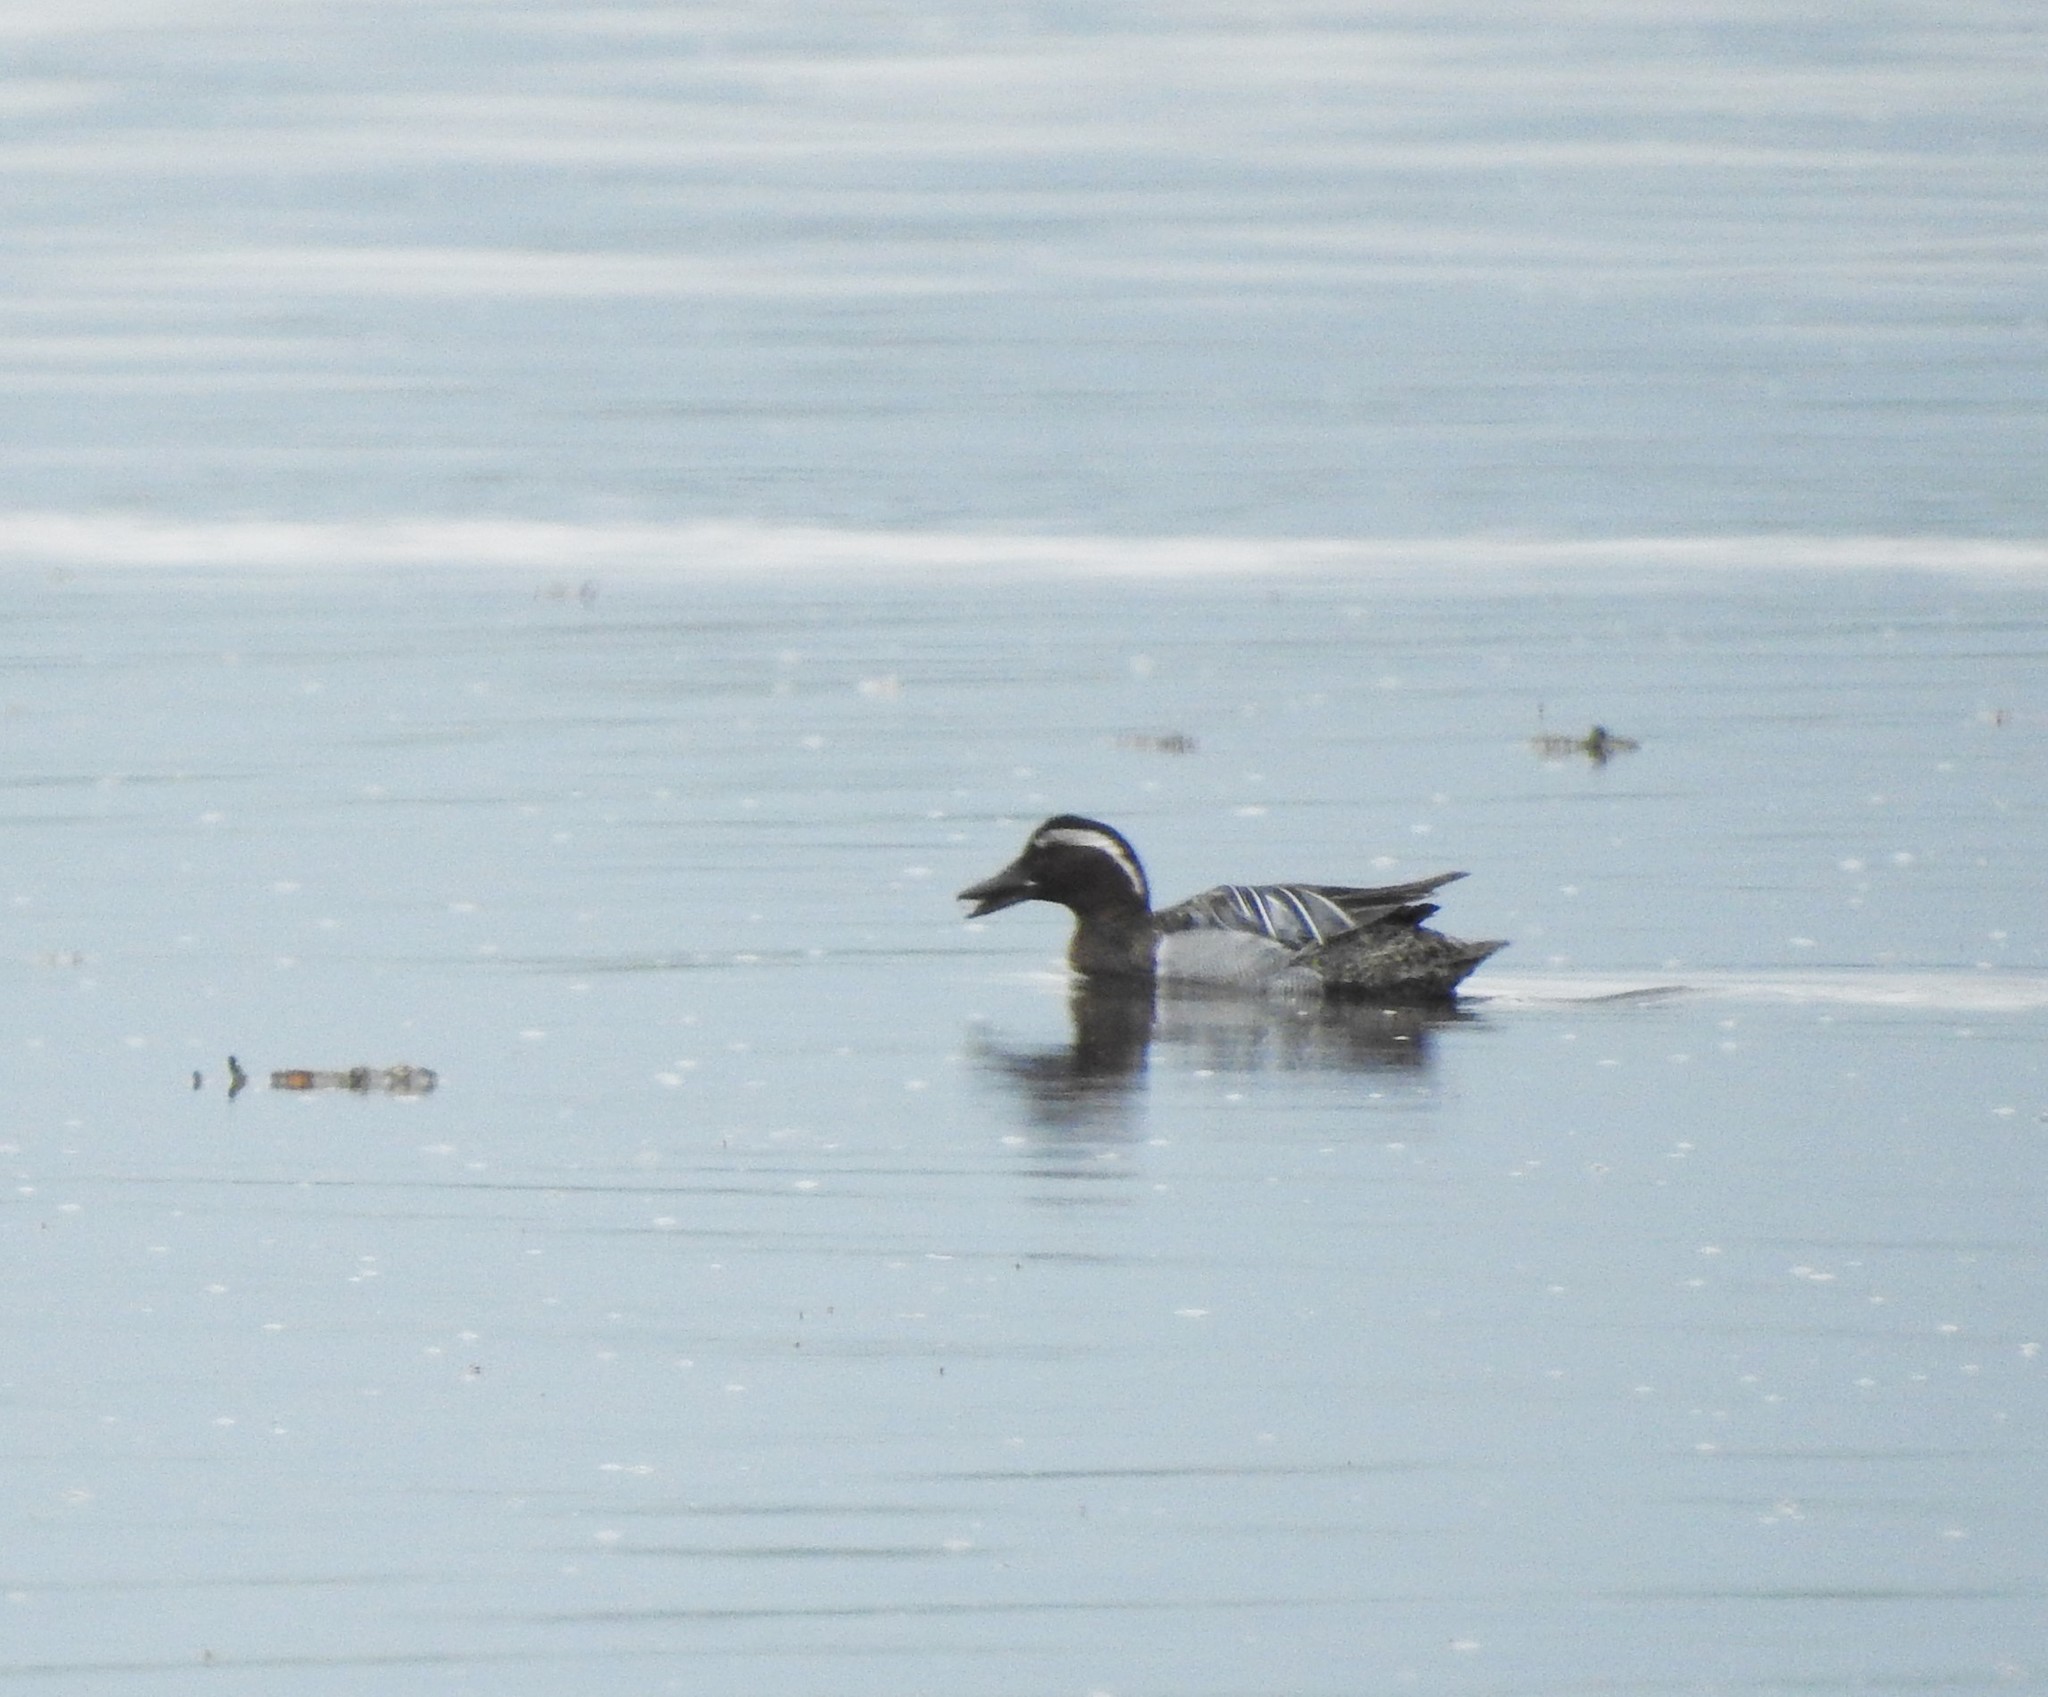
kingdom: Animalia
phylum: Chordata
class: Aves
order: Anseriformes
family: Anatidae
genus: Spatula
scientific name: Spatula querquedula
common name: Garganey
